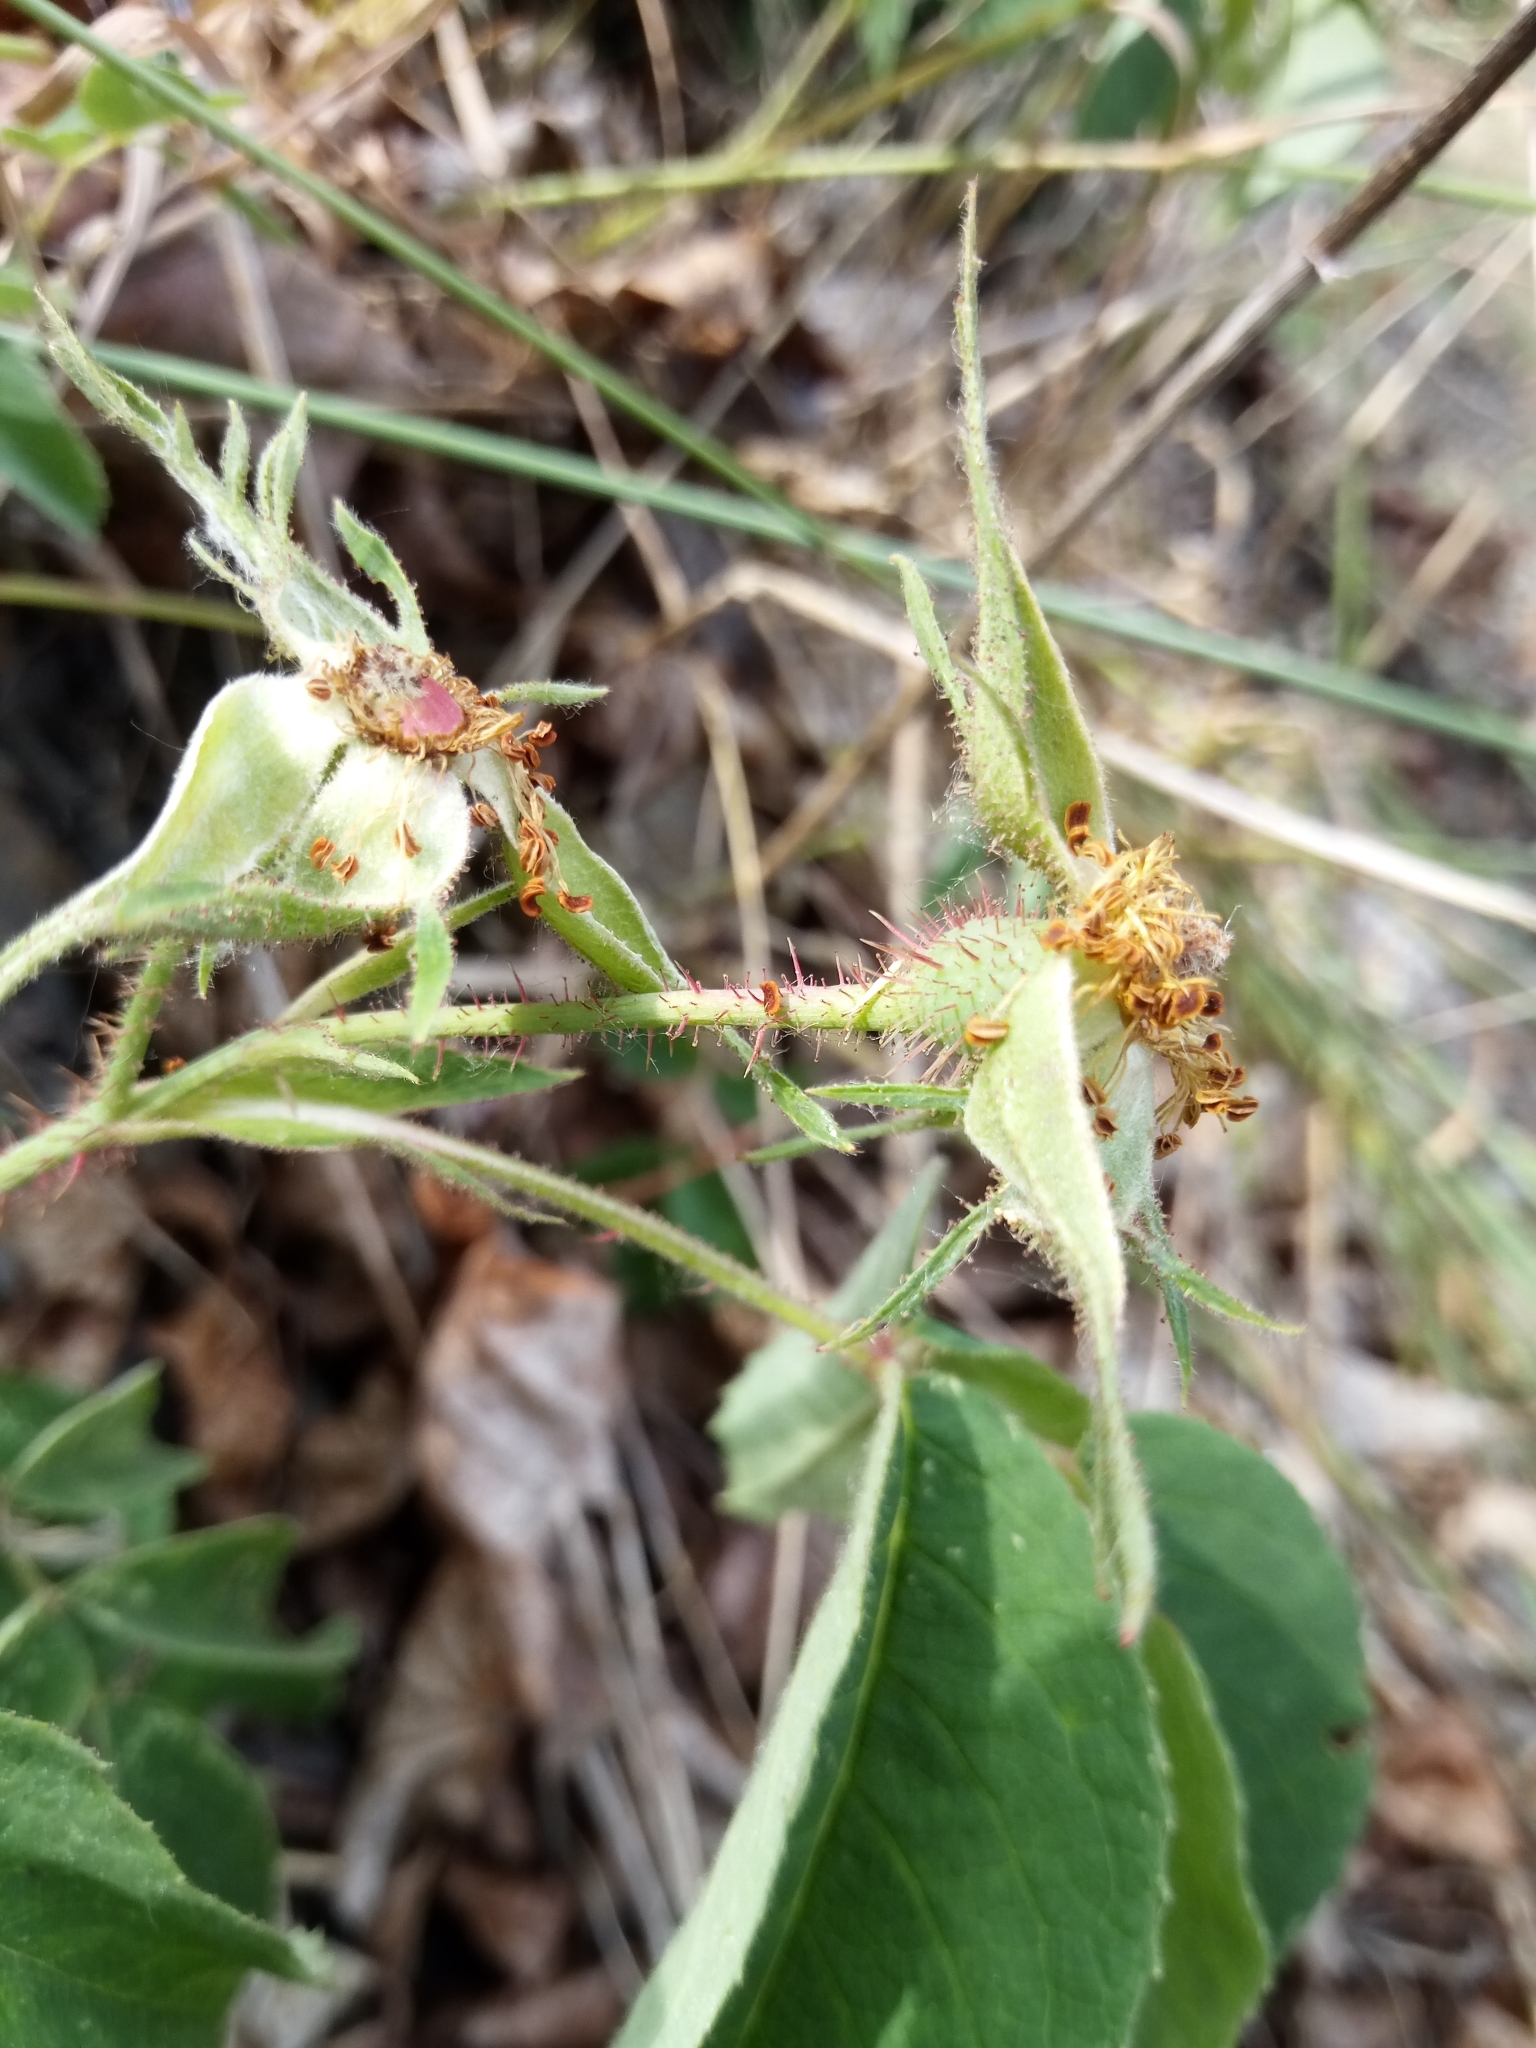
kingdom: Plantae
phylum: Tracheophyta
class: Magnoliopsida
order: Rosales
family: Rosaceae
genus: Rosa
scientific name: Rosa gallica
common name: French rose
